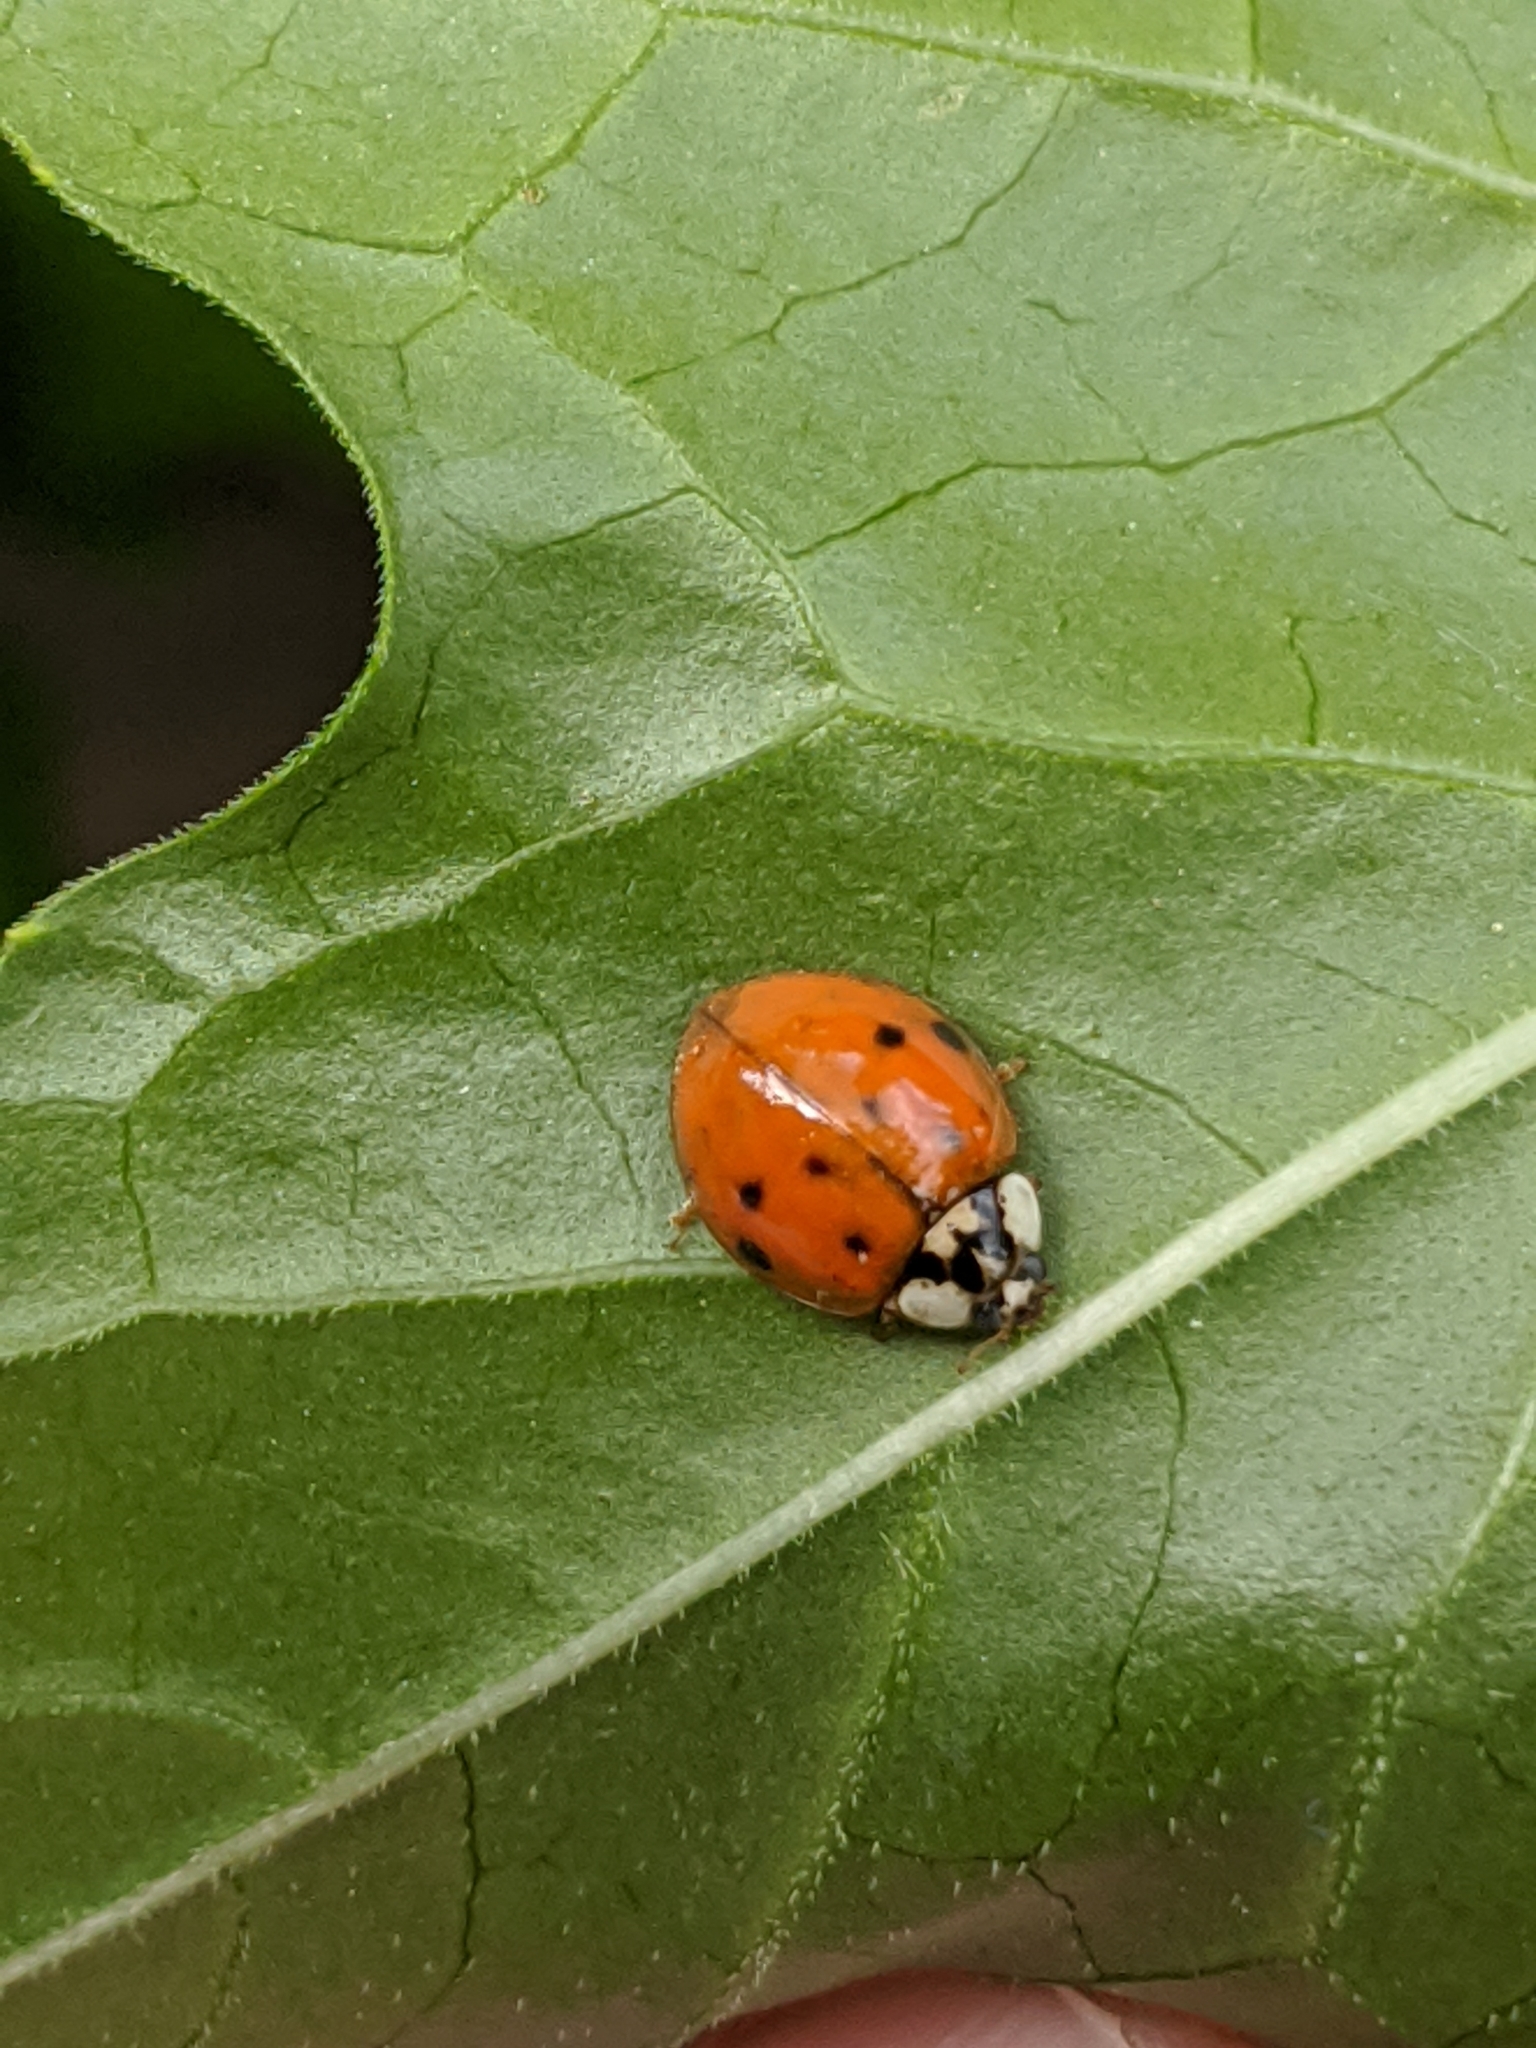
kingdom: Animalia
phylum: Arthropoda
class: Insecta
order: Coleoptera
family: Coccinellidae
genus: Harmonia
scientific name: Harmonia axyridis
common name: Harlequin ladybird
